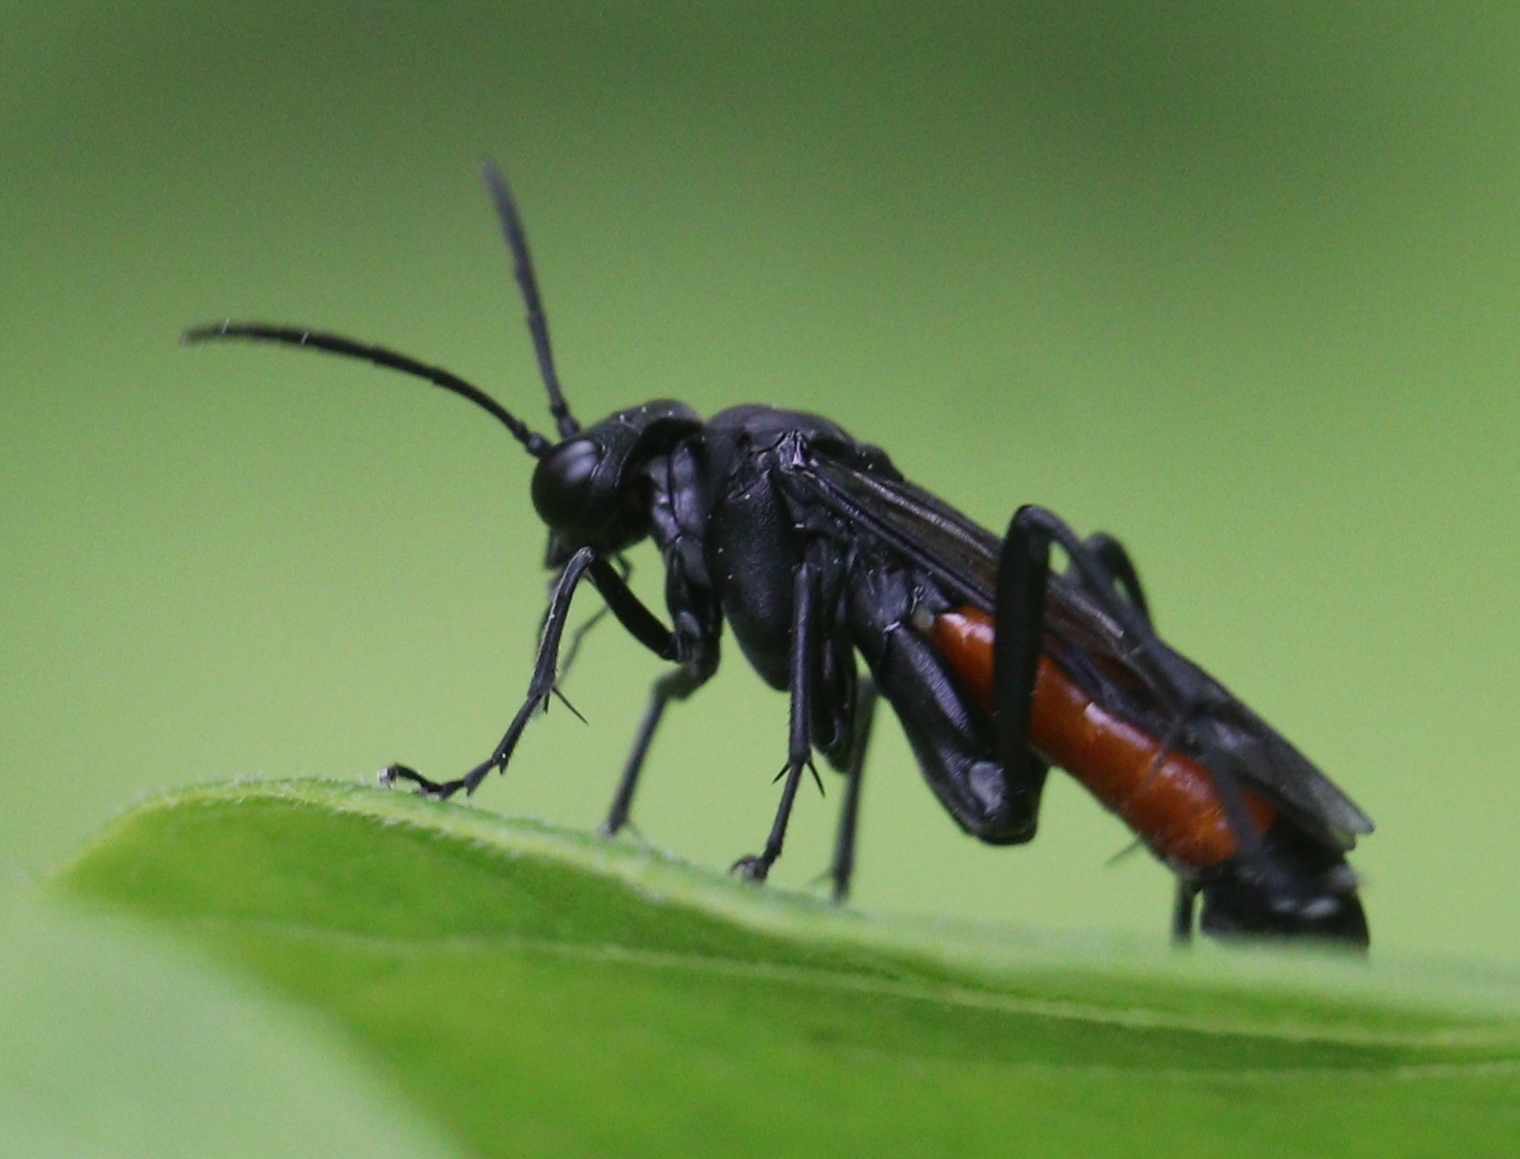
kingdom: Animalia
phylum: Arthropoda
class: Insecta
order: Hymenoptera
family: Tenthredinidae
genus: Macrophya
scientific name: Macrophya annulata
